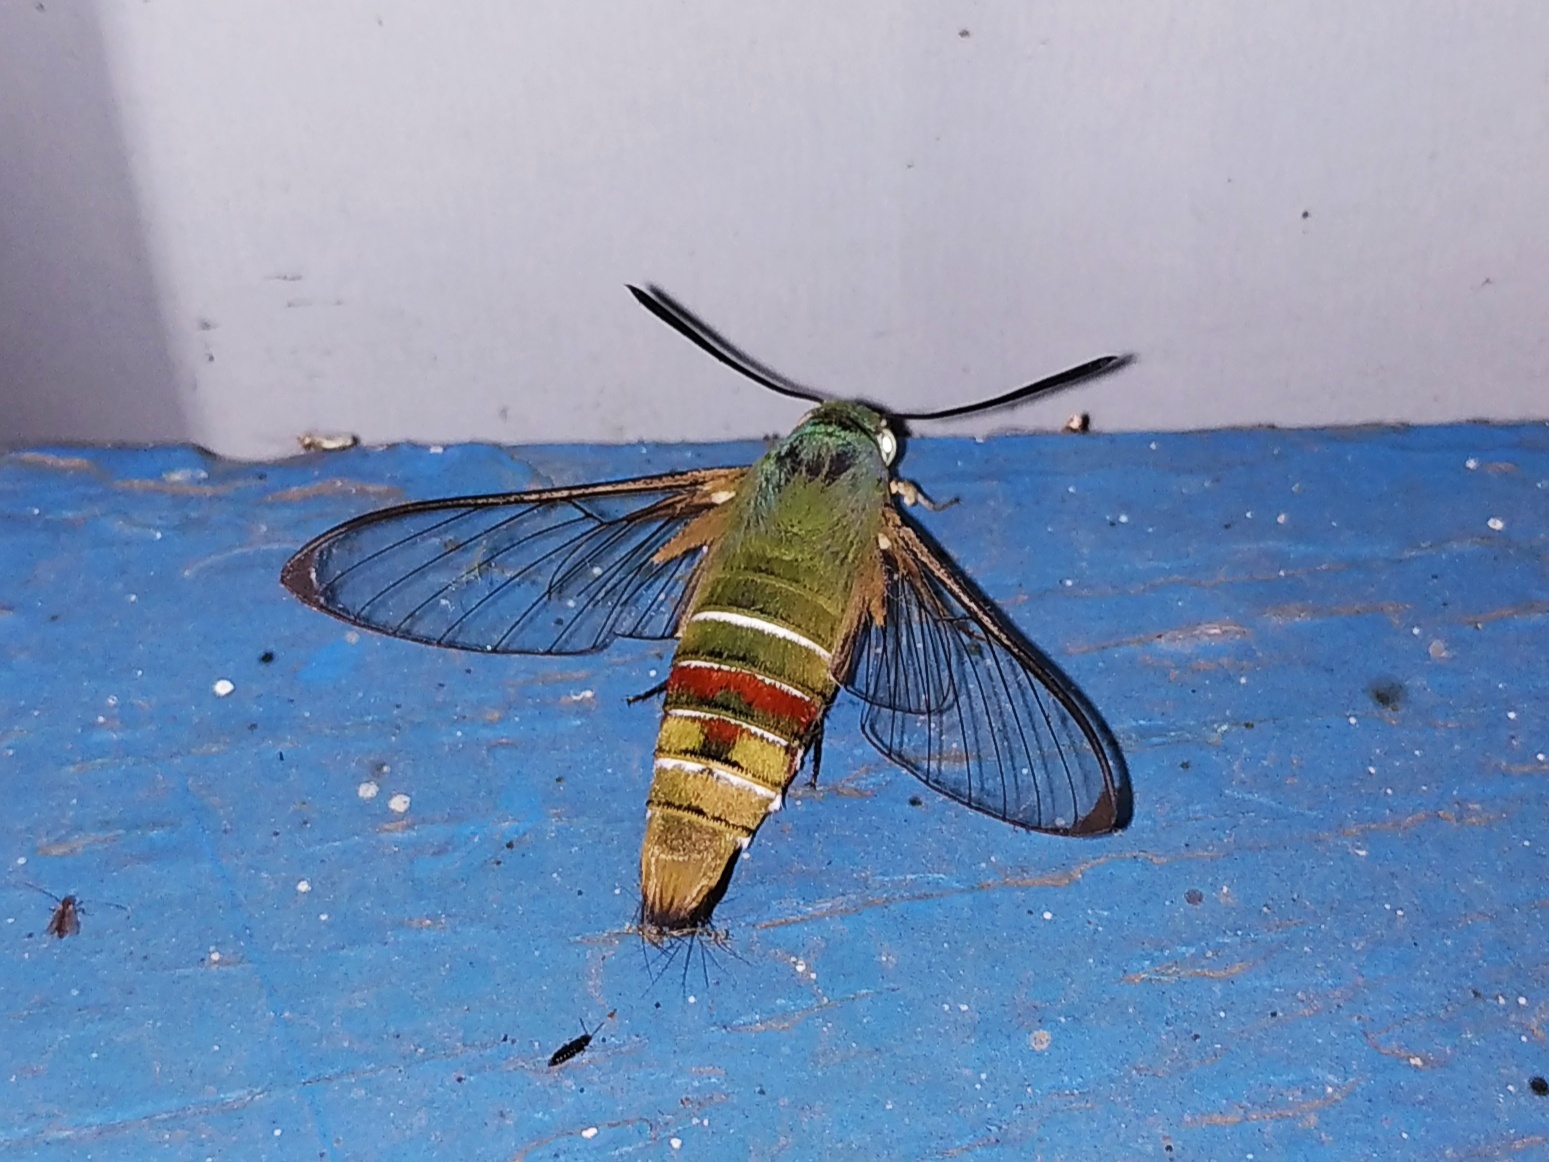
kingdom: Animalia
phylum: Arthropoda
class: Insecta
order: Lepidoptera
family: Sphingidae
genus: Cephonodes
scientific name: Cephonodes hylas
